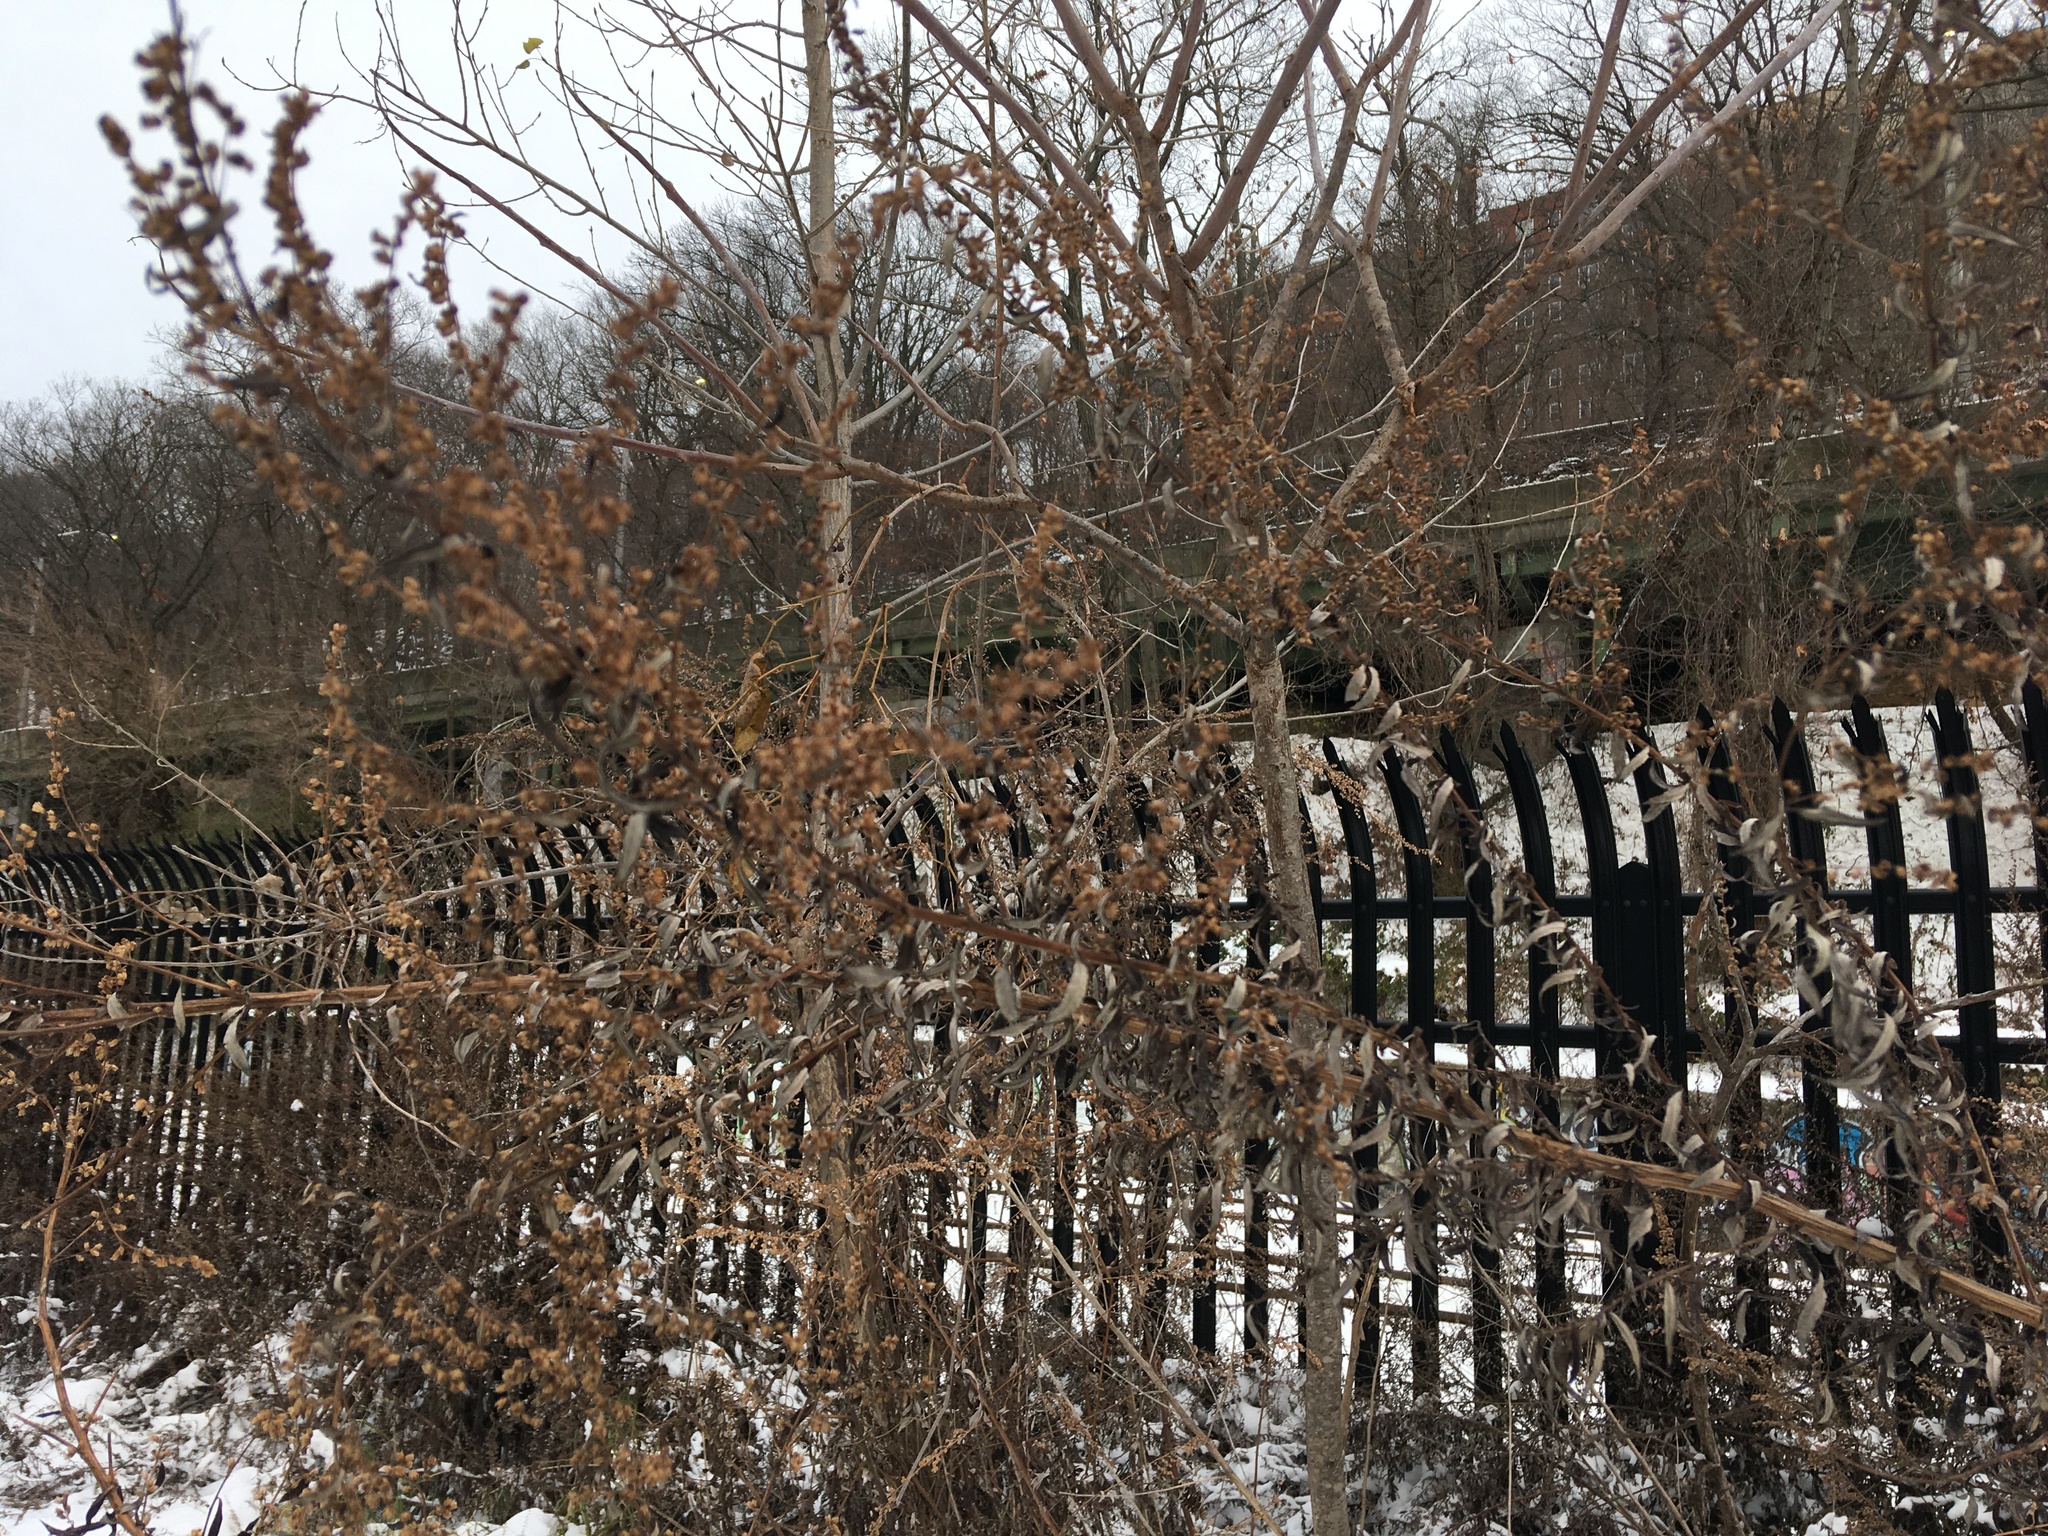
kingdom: Plantae
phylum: Tracheophyta
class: Magnoliopsida
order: Asterales
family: Asteraceae
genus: Artemisia
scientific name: Artemisia vulgaris
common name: Mugwort
